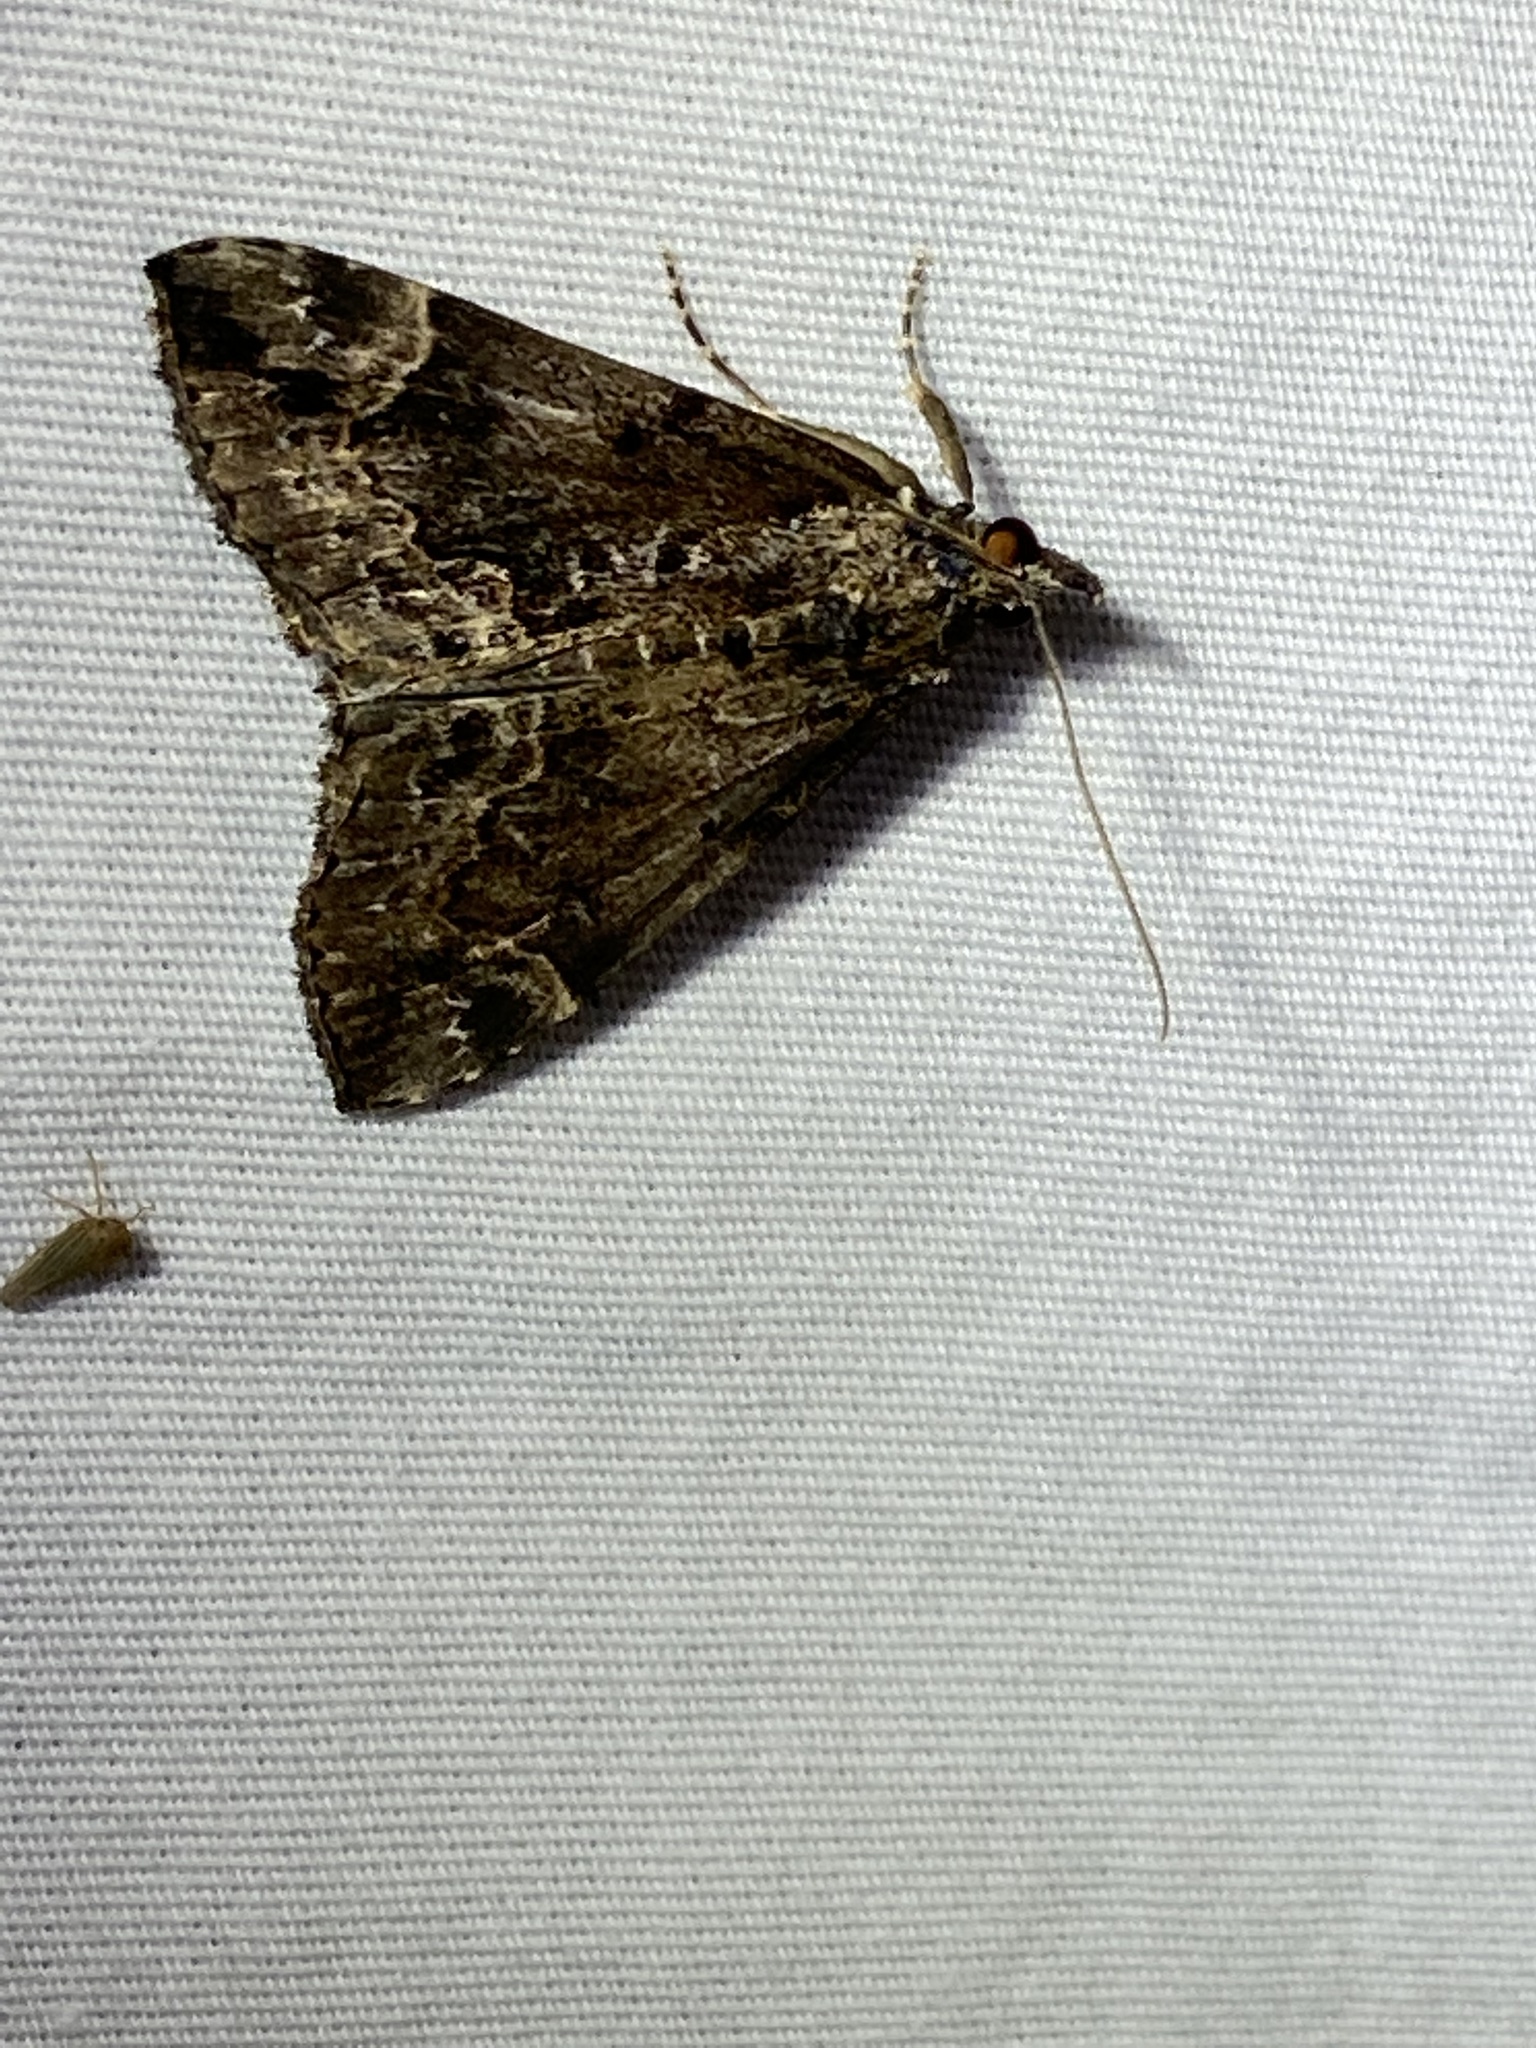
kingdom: Animalia
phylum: Arthropoda
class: Insecta
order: Lepidoptera
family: Erebidae
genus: Hypena
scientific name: Hypena baltimoralis
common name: Baltimore snout
